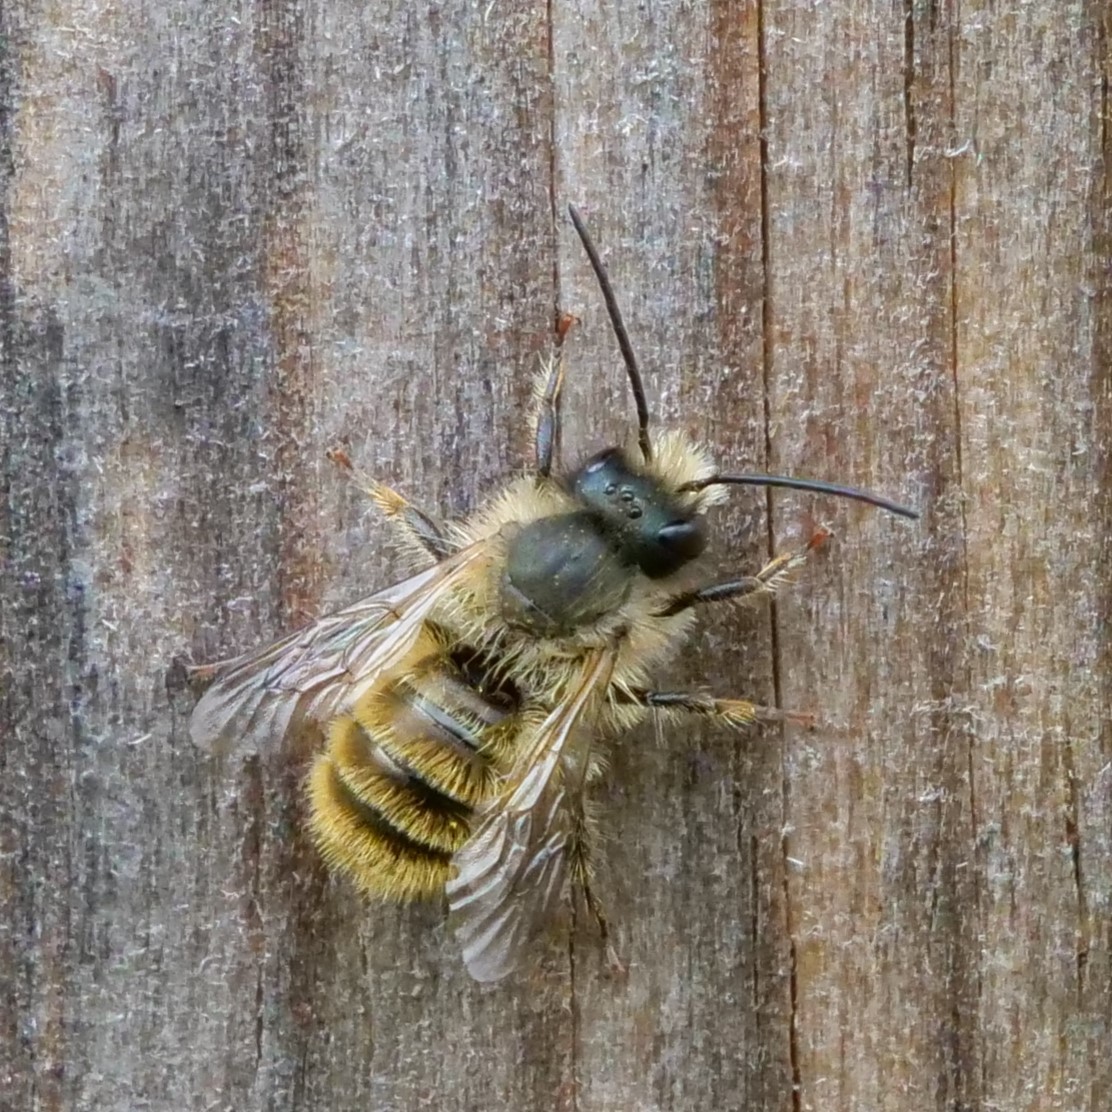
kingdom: Animalia
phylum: Arthropoda
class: Insecta
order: Hymenoptera
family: Megachilidae
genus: Osmia
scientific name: Osmia bicornis
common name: Red mason bee
